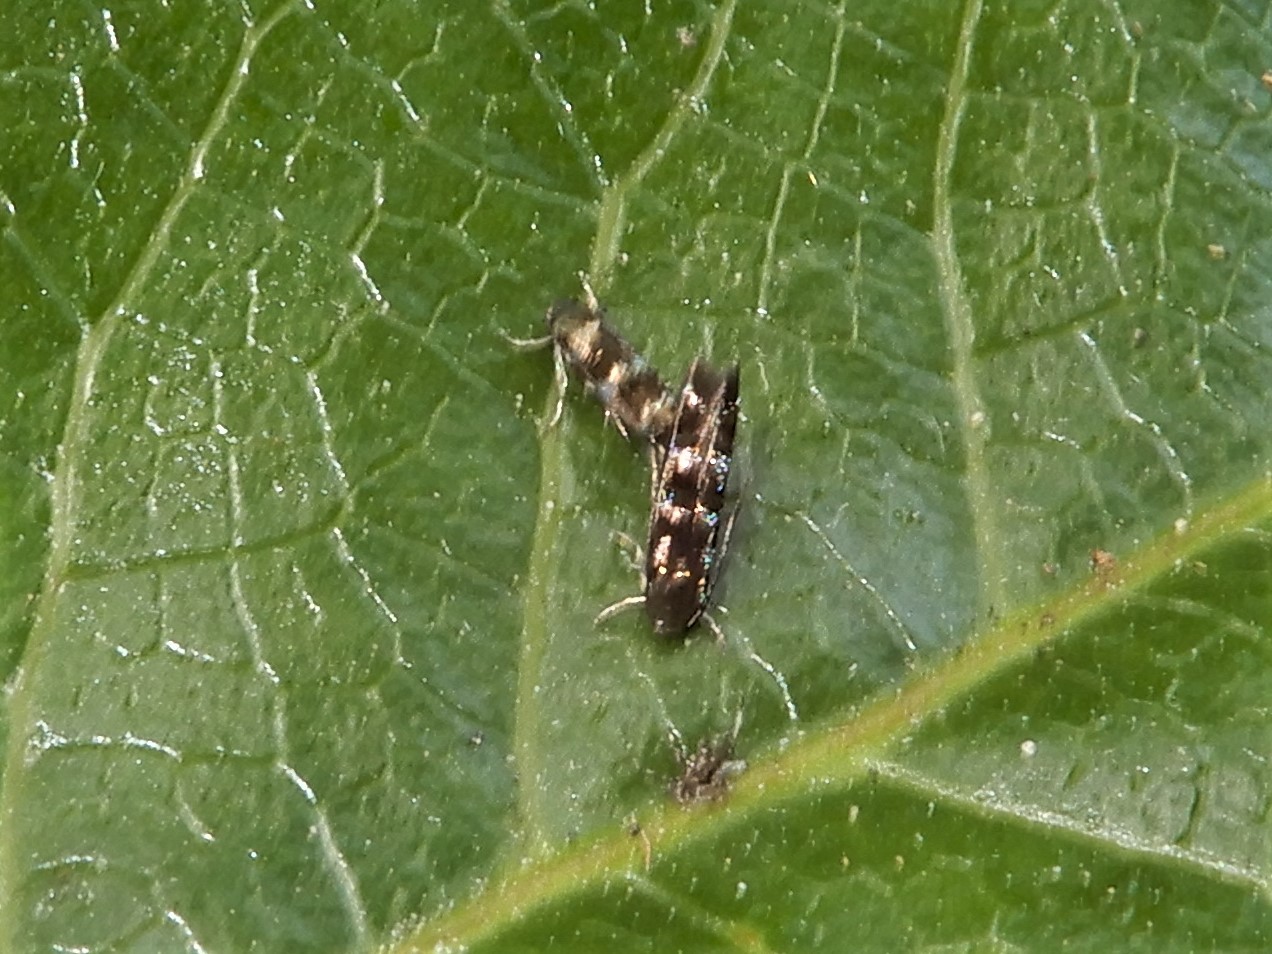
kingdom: Animalia
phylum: Arthropoda
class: Insecta
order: Lepidoptera
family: Momphidae
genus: Zapyrastra
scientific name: Zapyrastra calliphana
